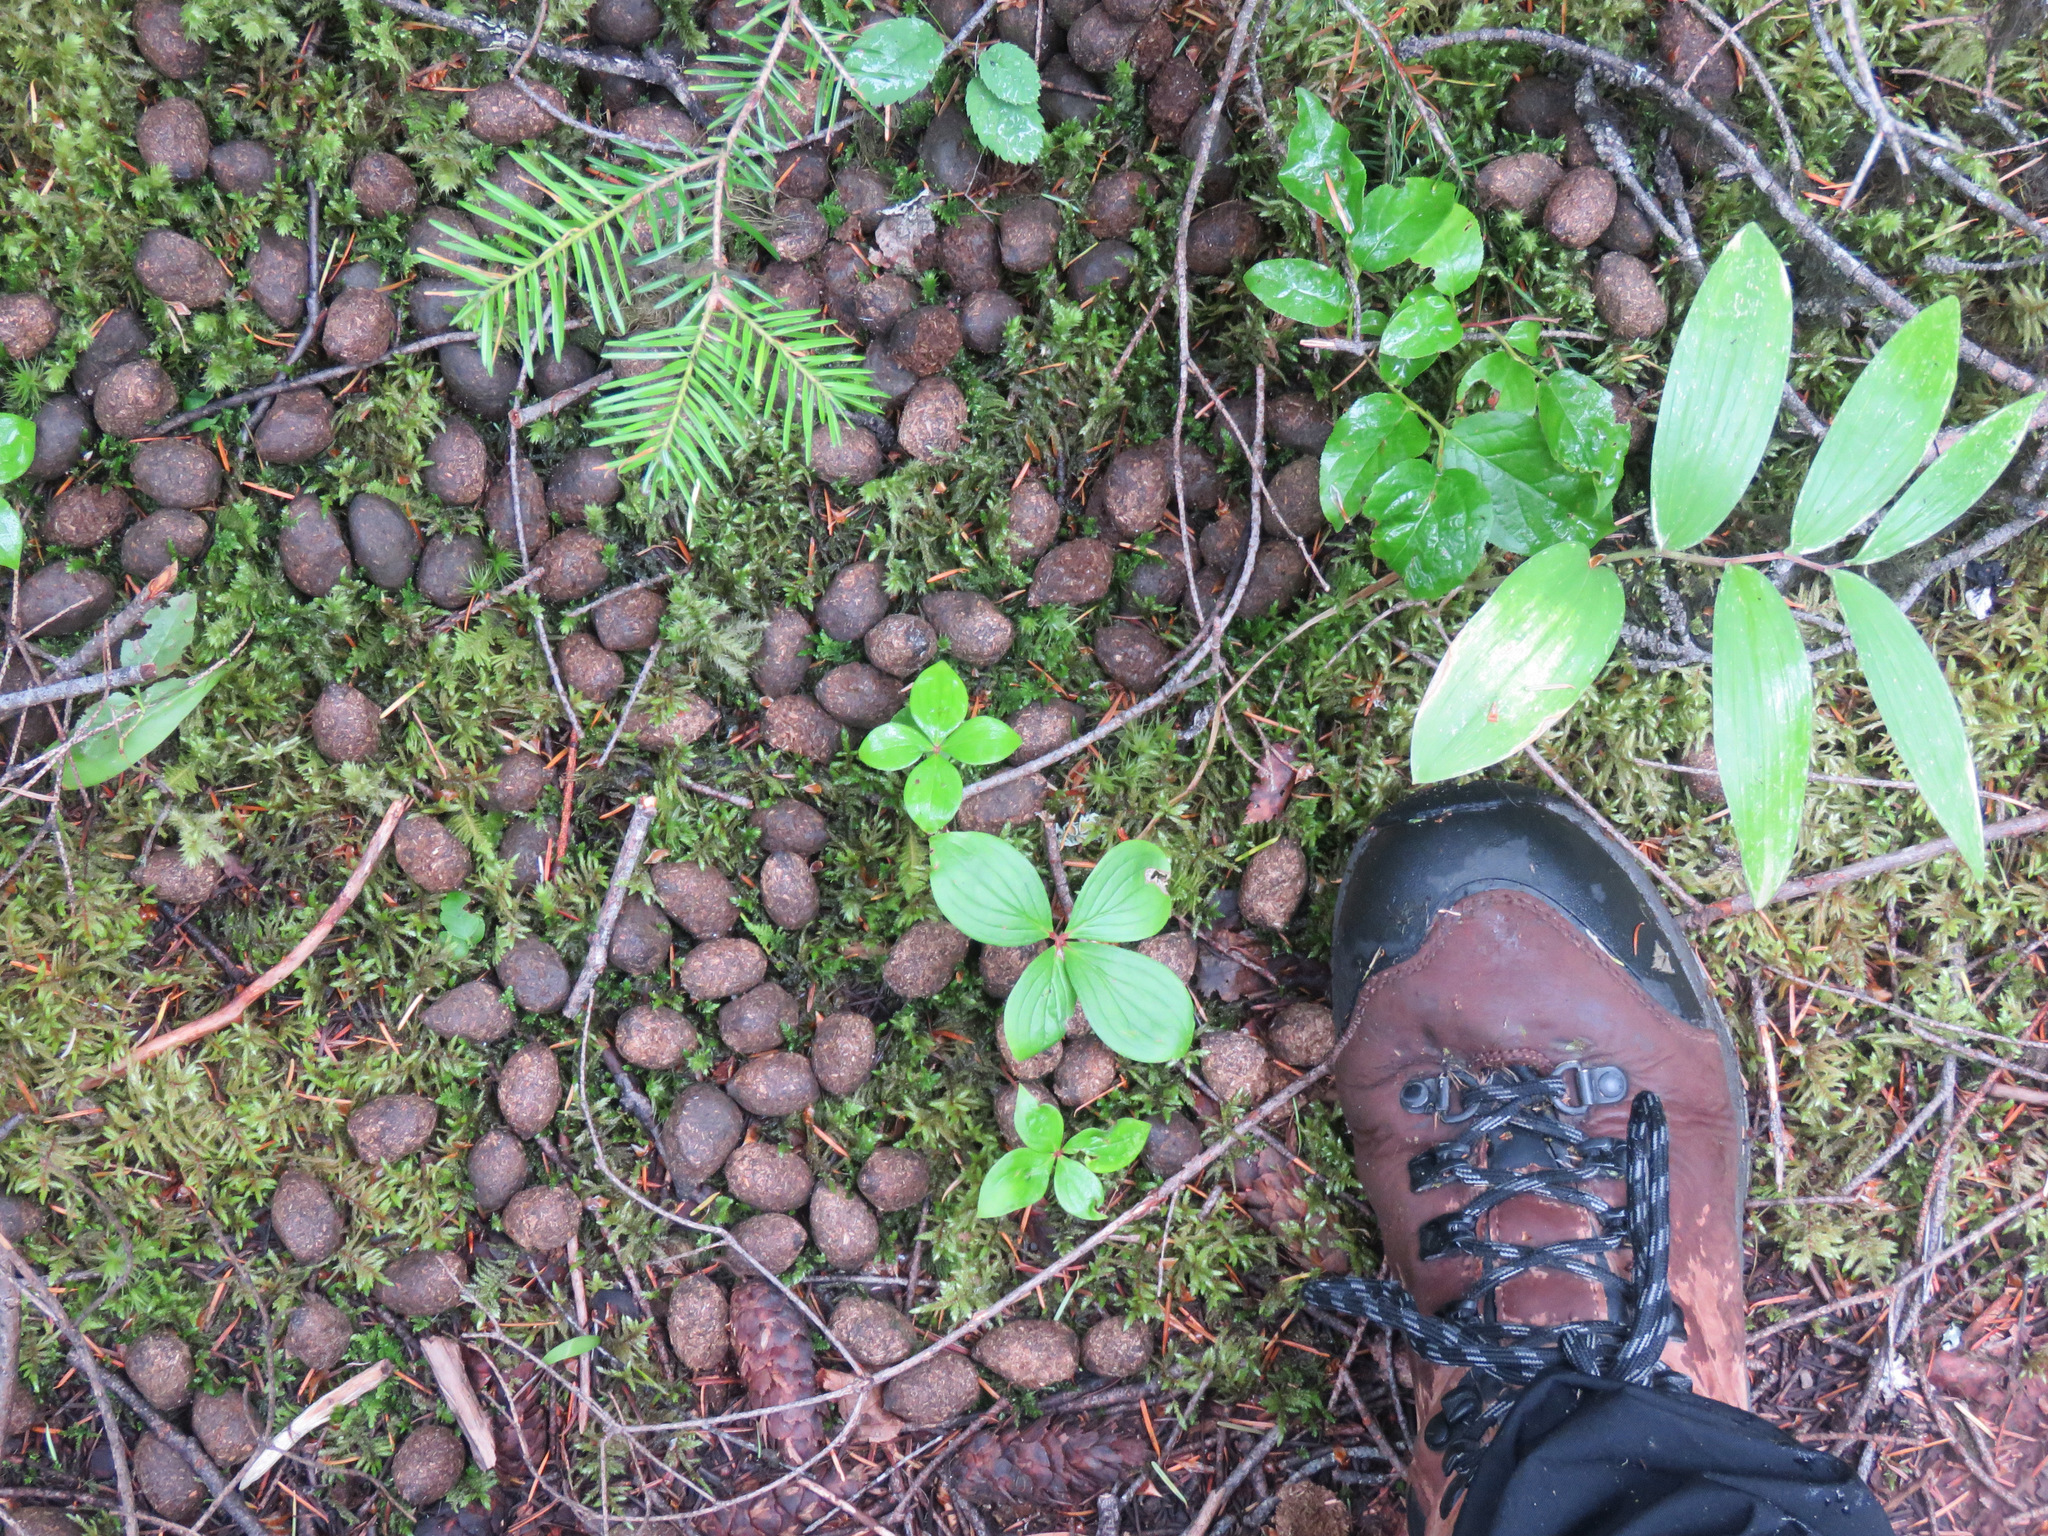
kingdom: Animalia
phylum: Chordata
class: Mammalia
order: Artiodactyla
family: Cervidae
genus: Alces
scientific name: Alces alces
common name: Moose
